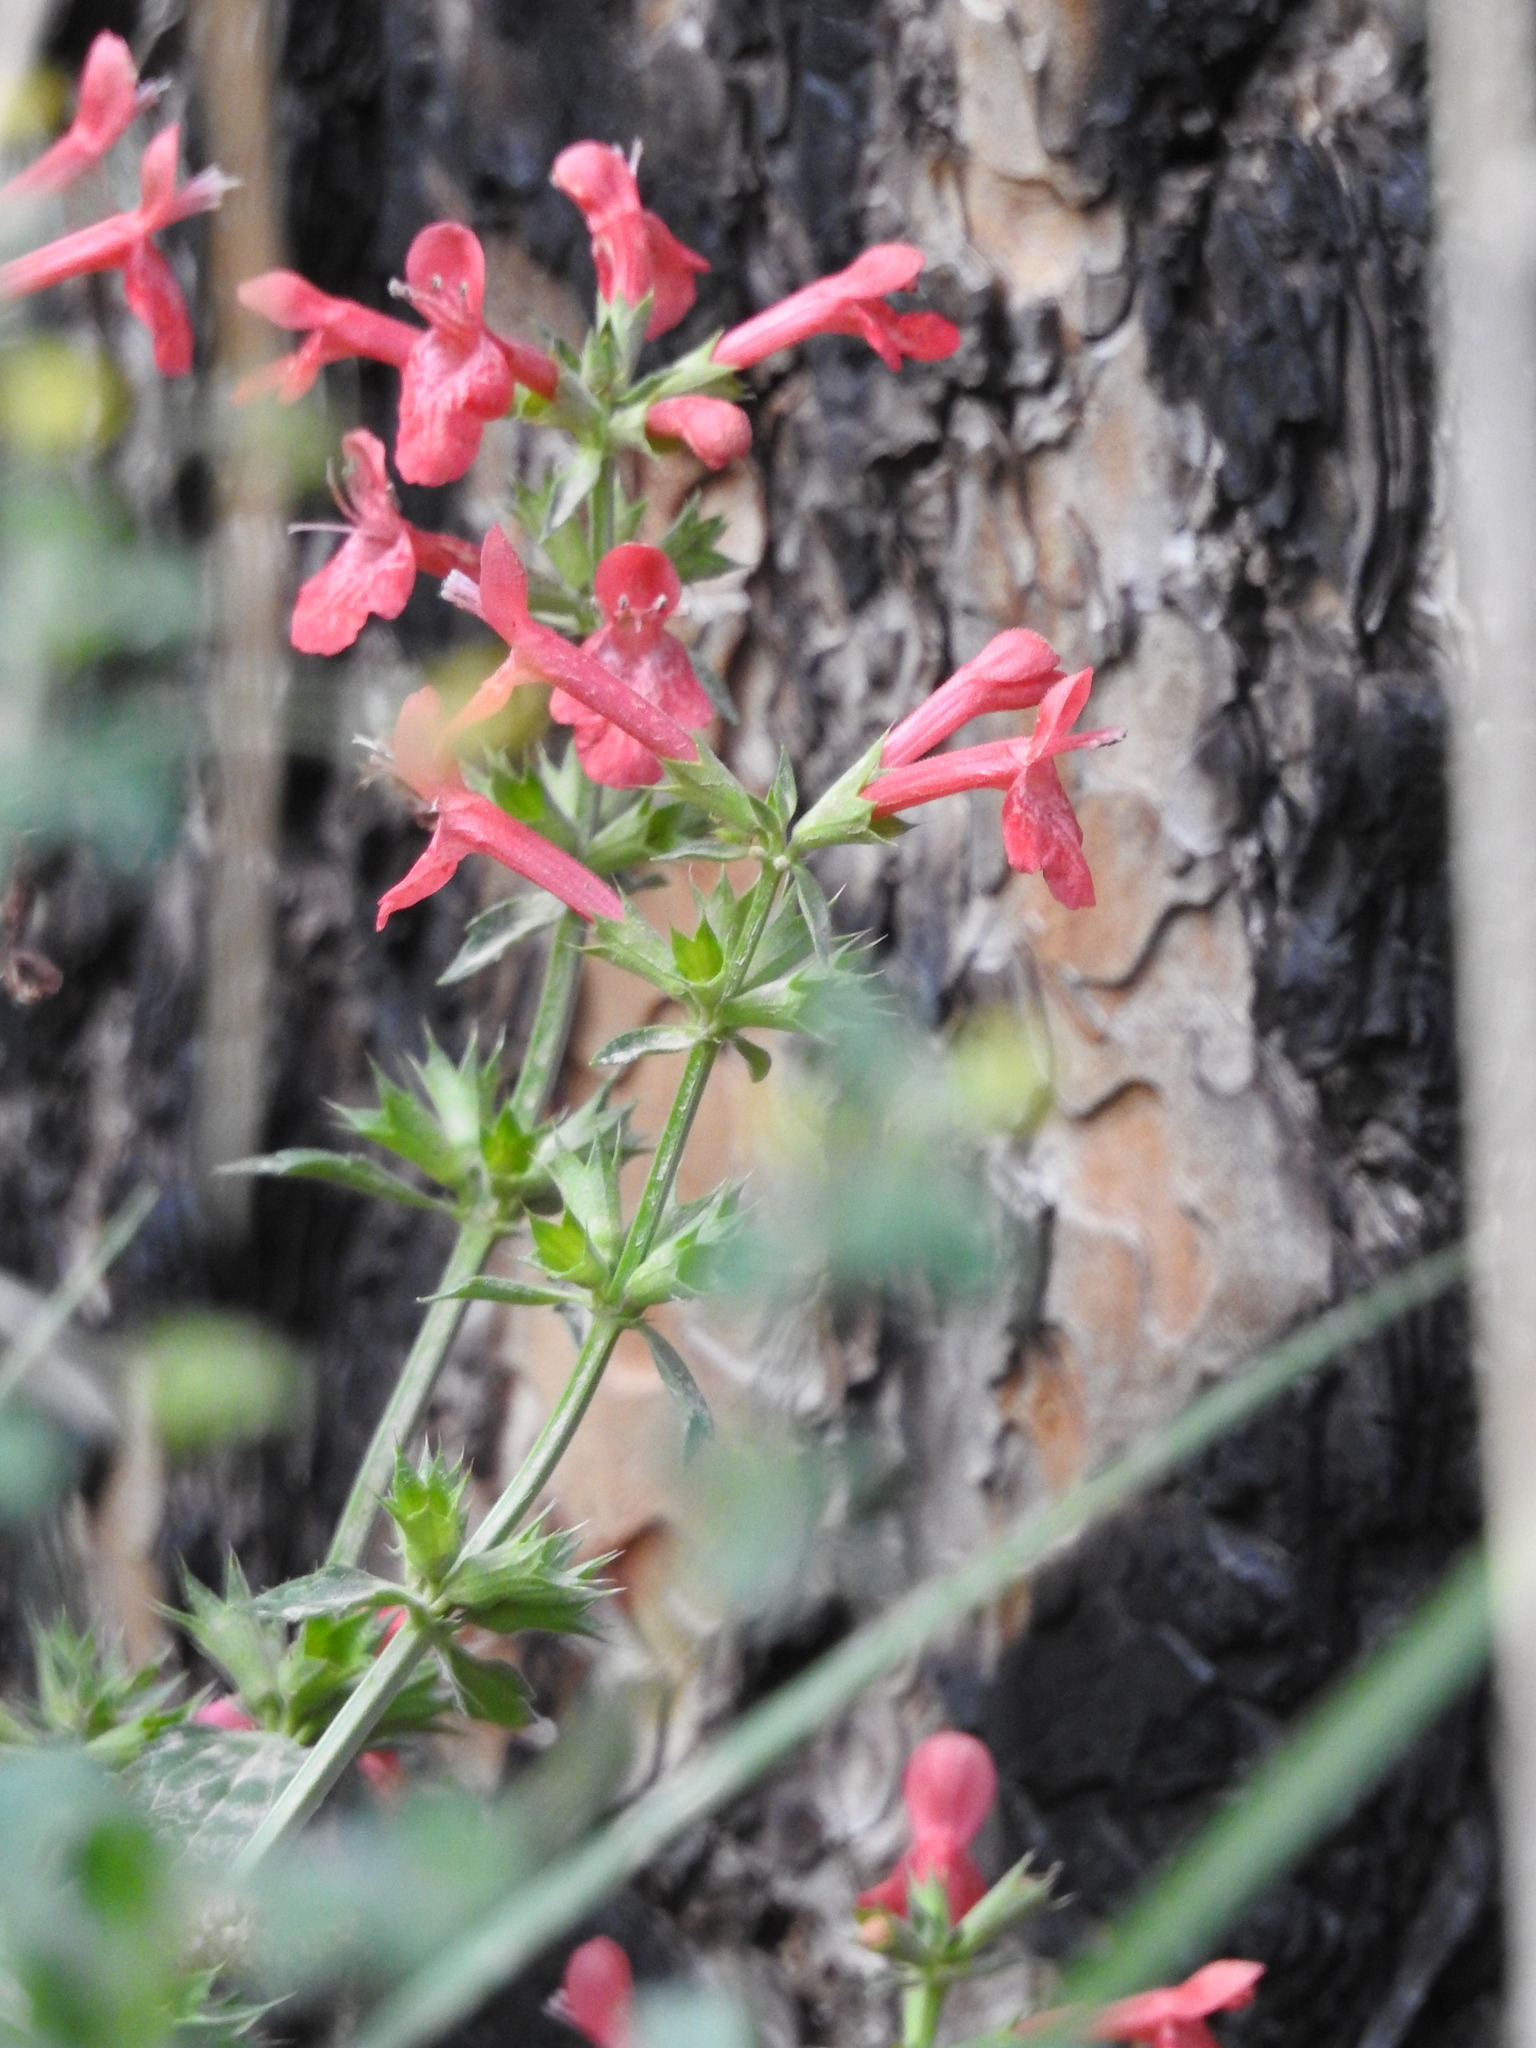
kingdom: Plantae
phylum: Tracheophyta
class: Magnoliopsida
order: Lamiales
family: Lamiaceae
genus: Stachys
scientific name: Stachys coccinea
